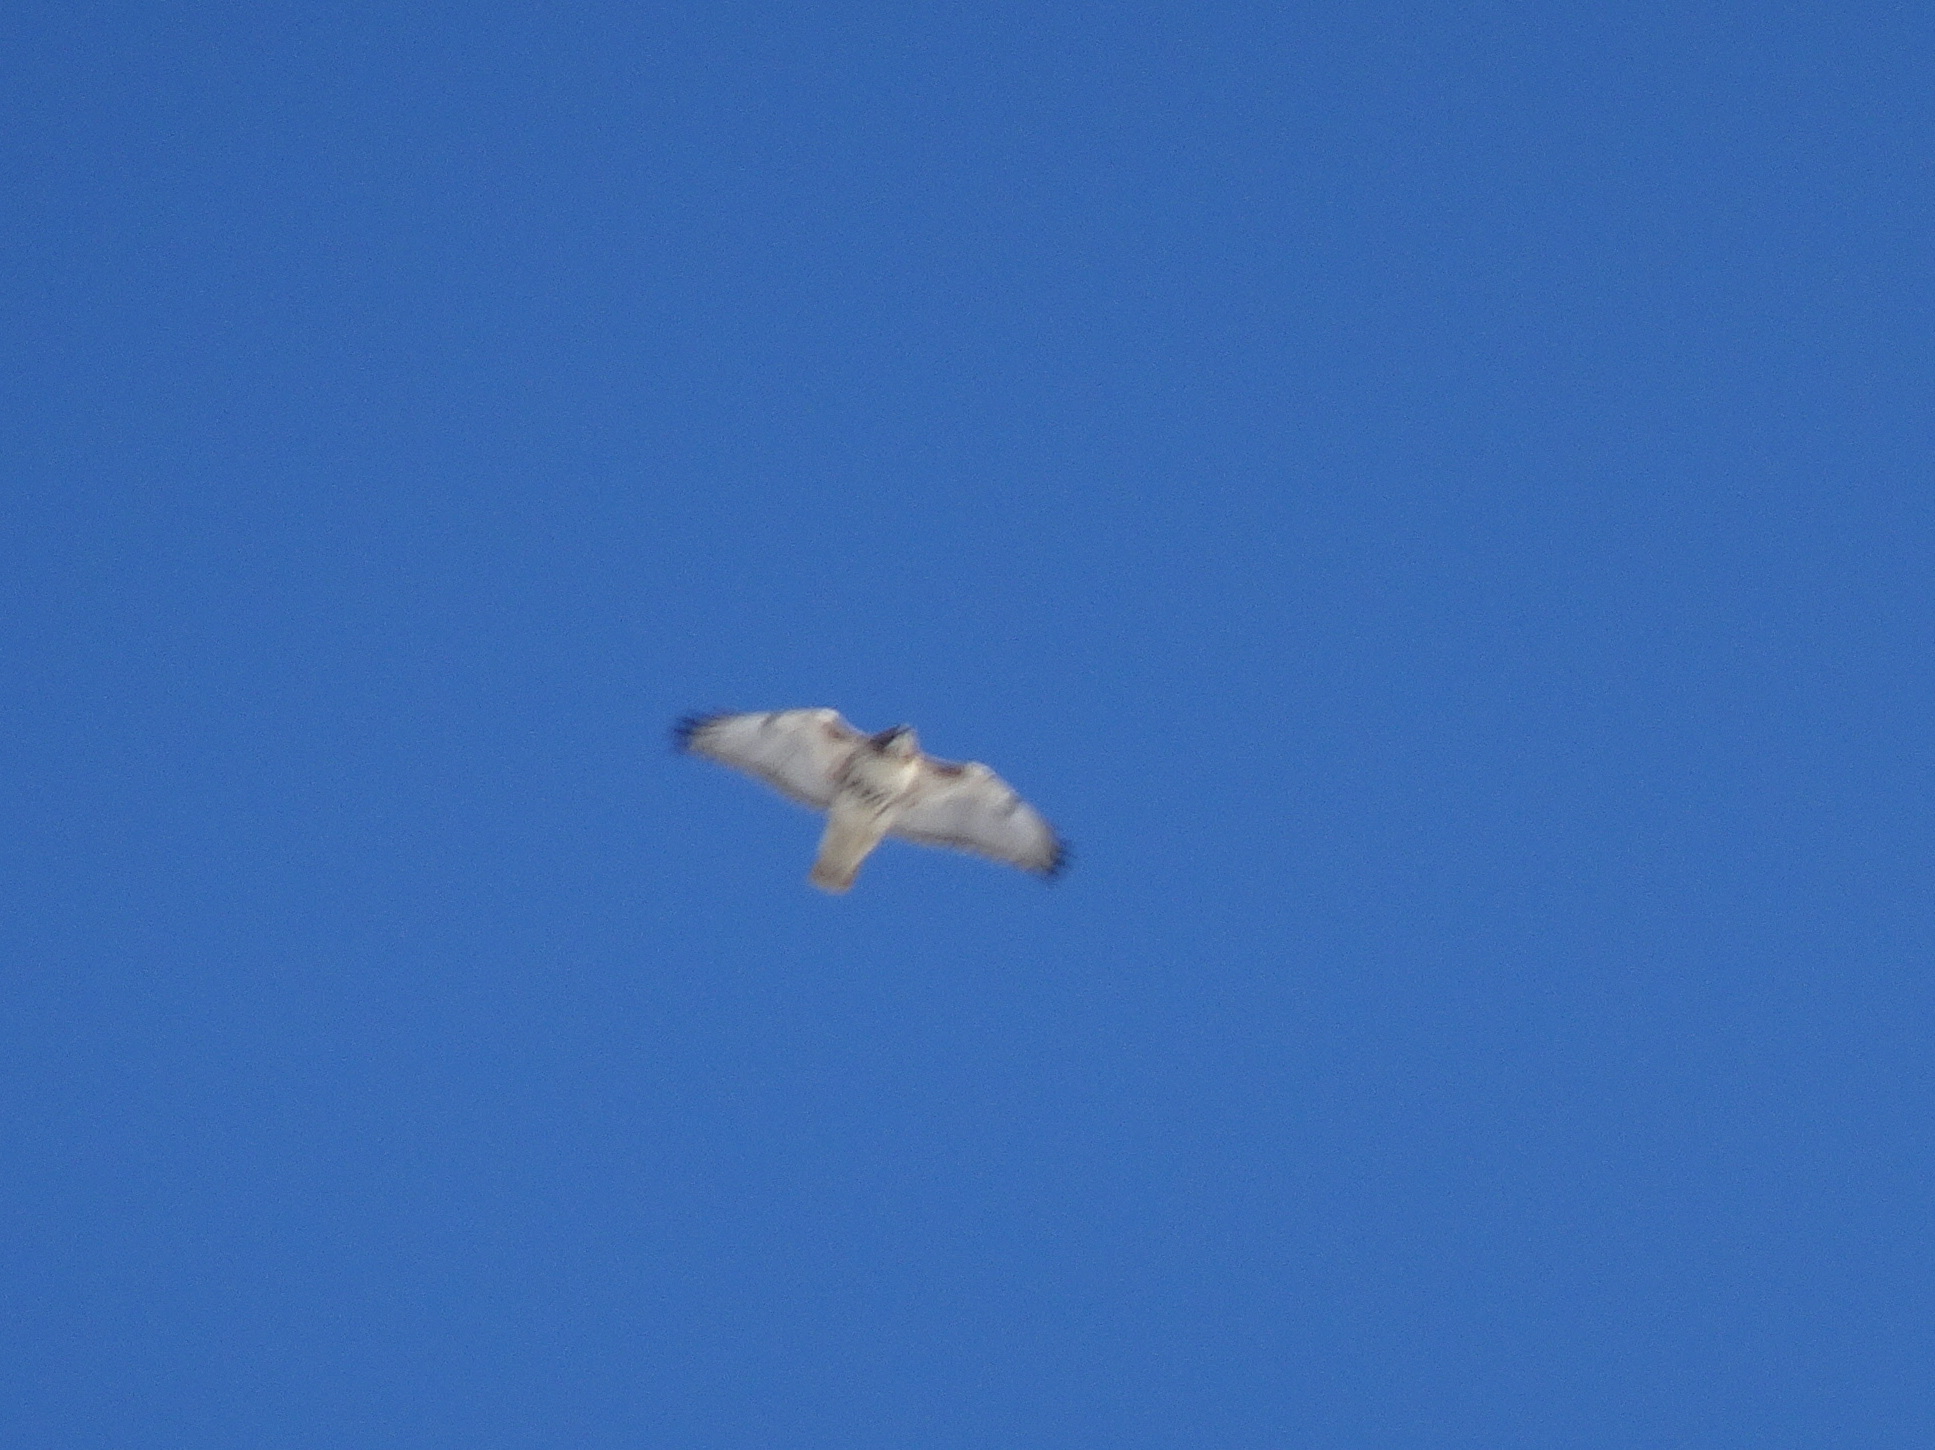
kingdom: Animalia
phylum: Chordata
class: Aves
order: Accipitriformes
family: Accipitridae
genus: Buteo
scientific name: Buteo jamaicensis
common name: Red-tailed hawk
